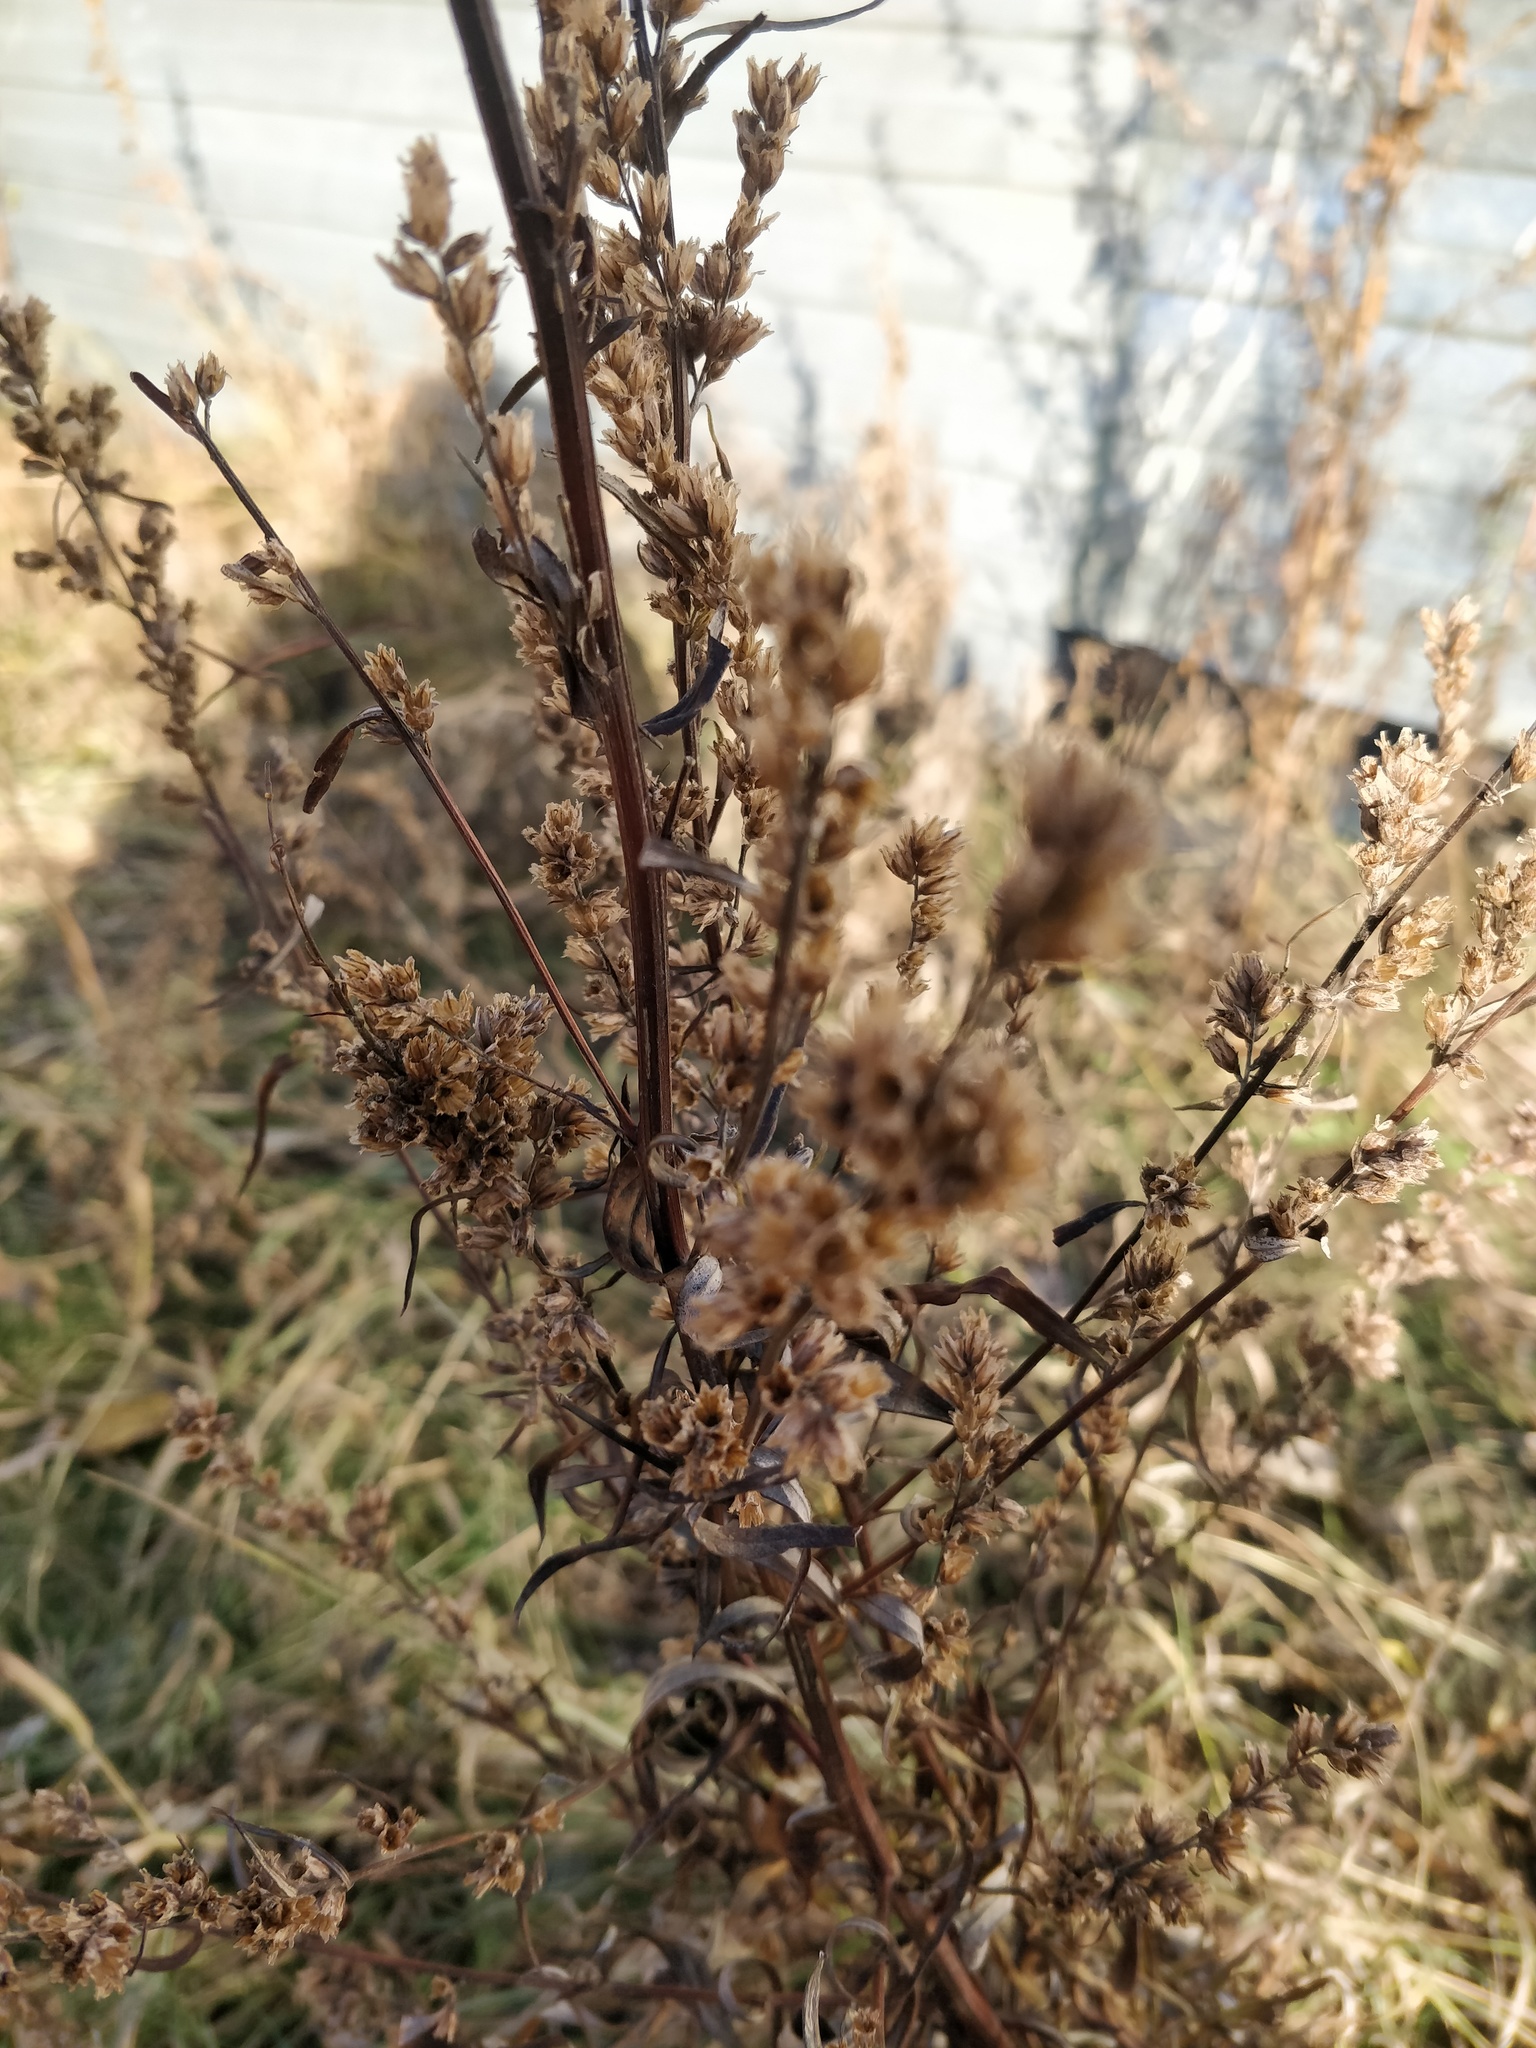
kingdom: Plantae
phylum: Tracheophyta
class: Magnoliopsida
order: Asterales
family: Asteraceae
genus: Artemisia
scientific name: Artemisia vulgaris
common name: Mugwort
